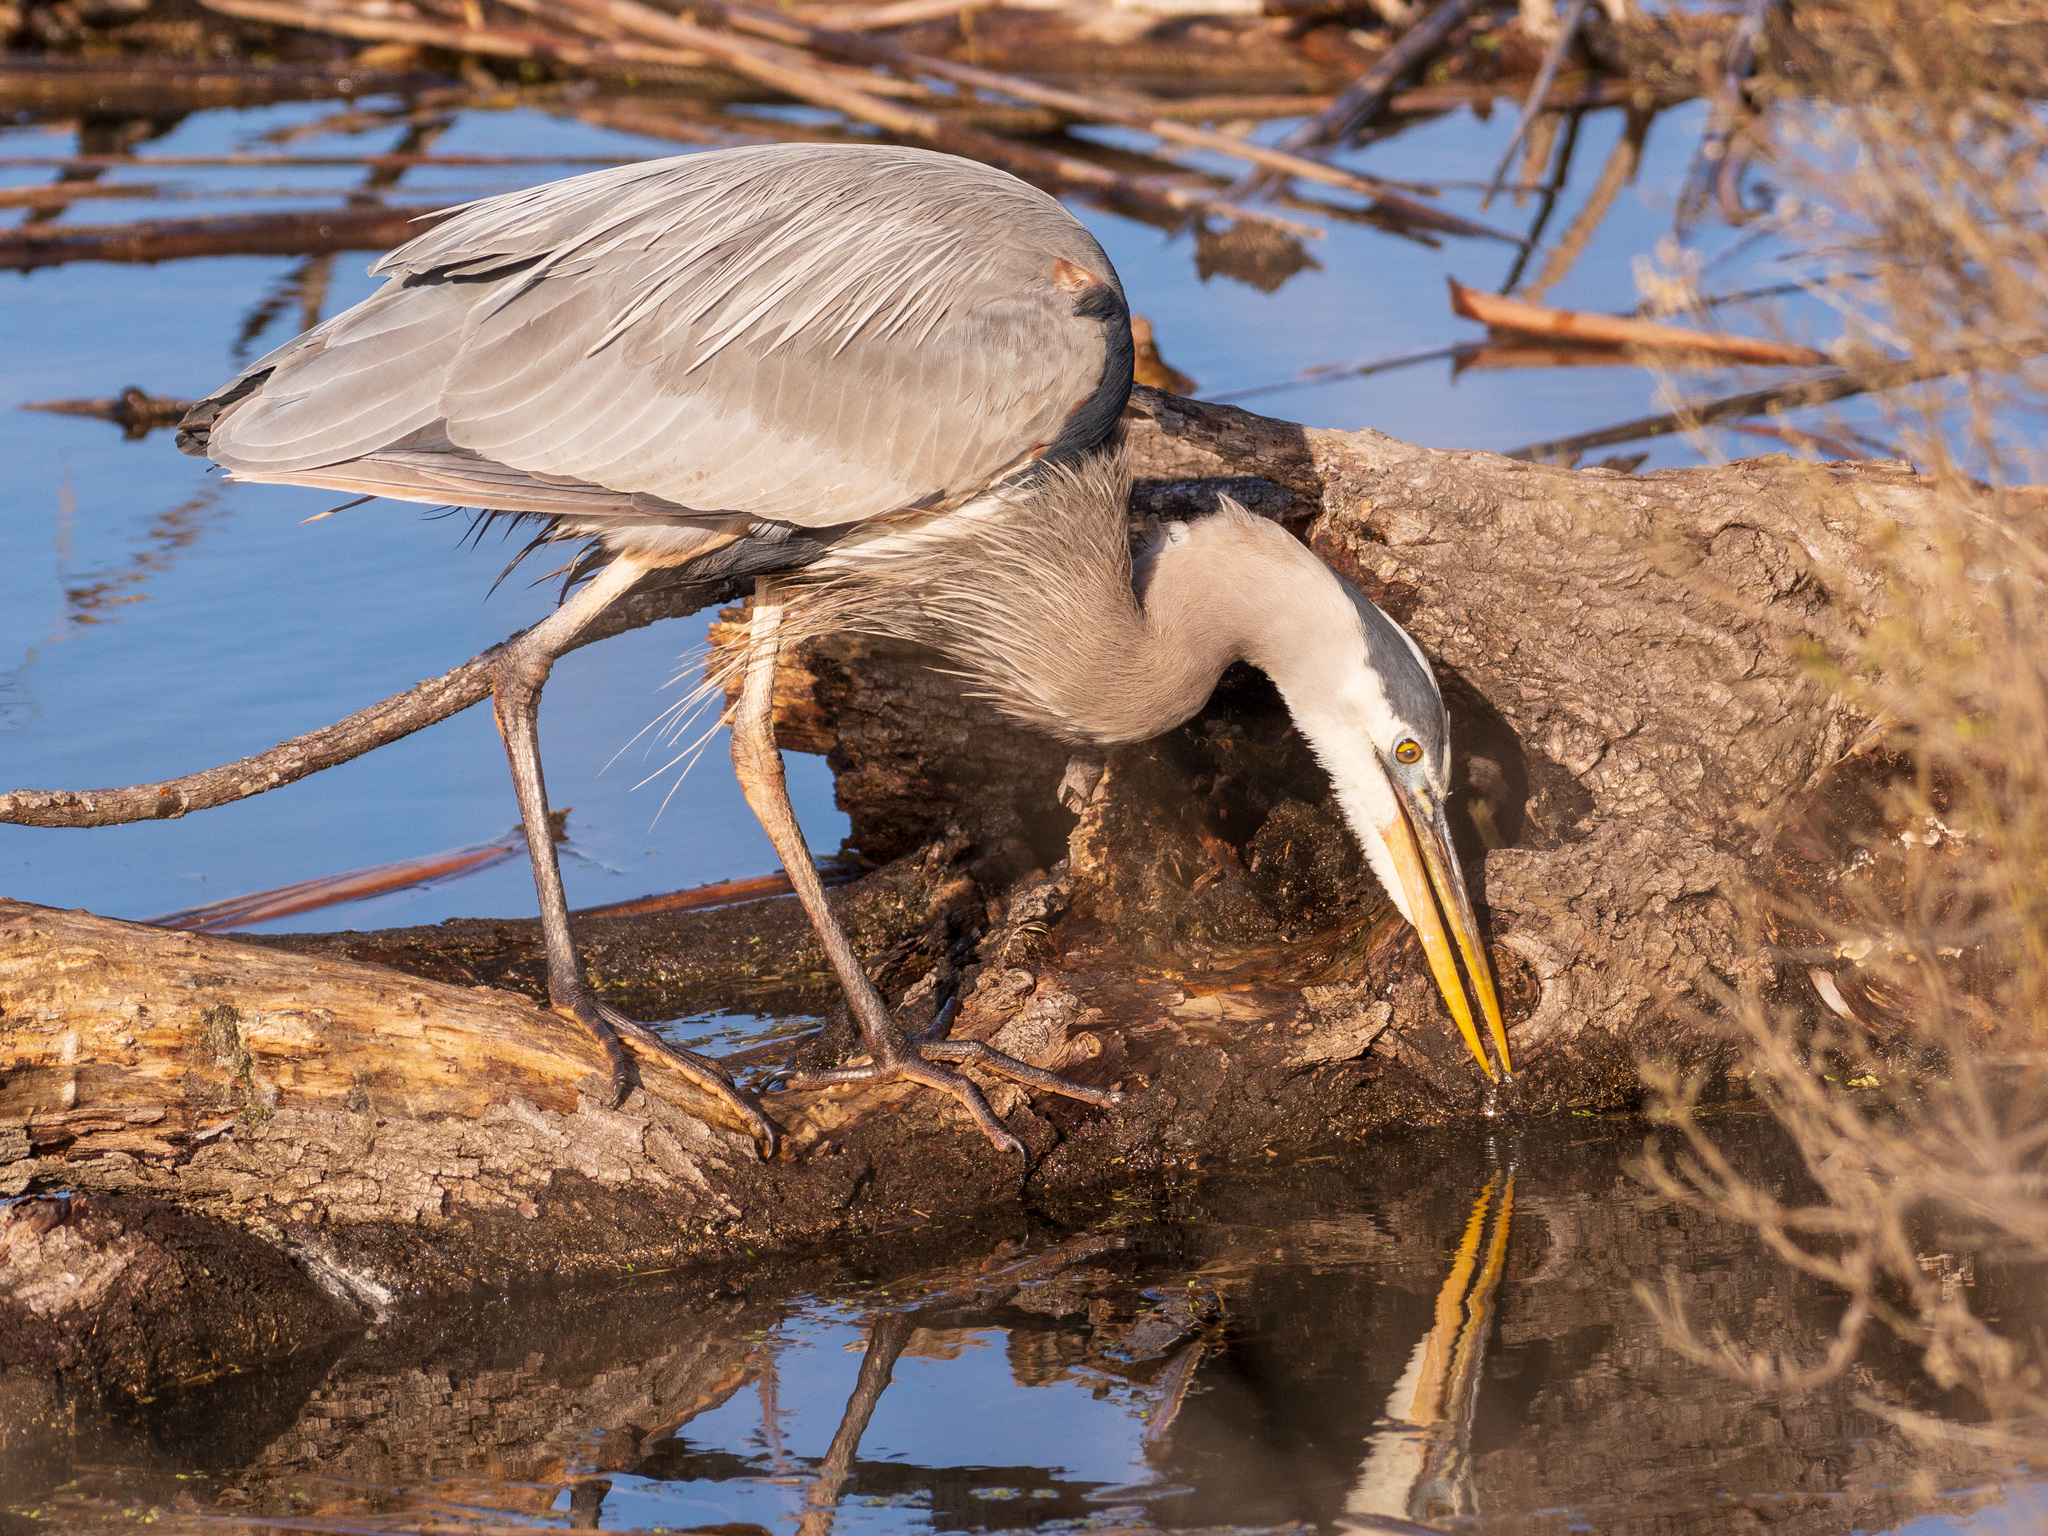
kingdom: Animalia
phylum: Chordata
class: Aves
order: Pelecaniformes
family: Ardeidae
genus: Ardea
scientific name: Ardea herodias
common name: Great blue heron
